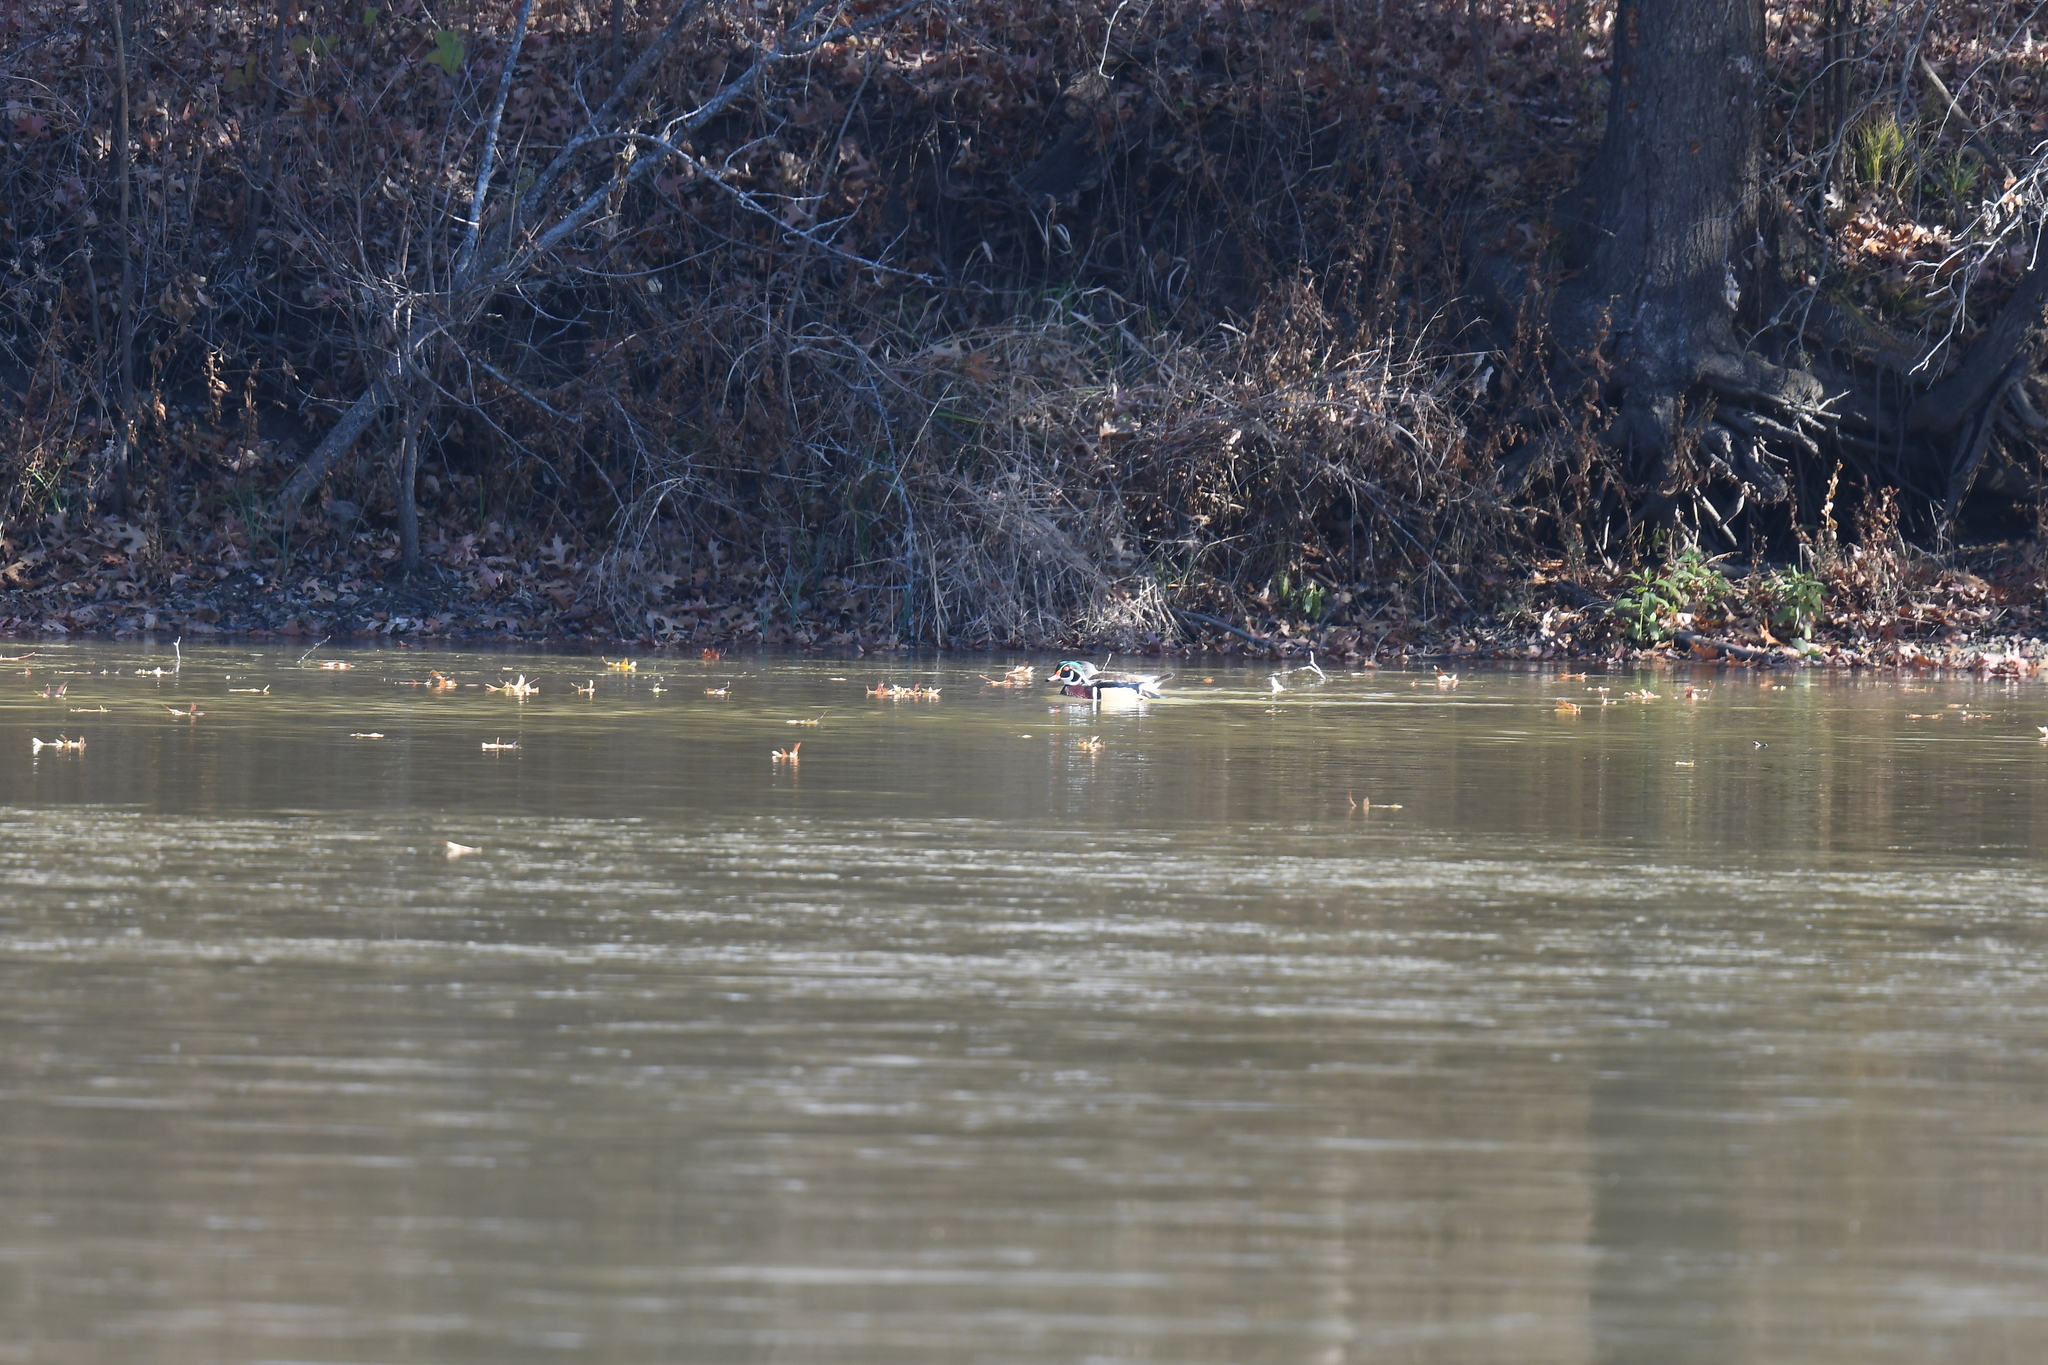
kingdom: Animalia
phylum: Chordata
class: Aves
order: Anseriformes
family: Anatidae
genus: Aix
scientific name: Aix sponsa
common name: Wood duck
